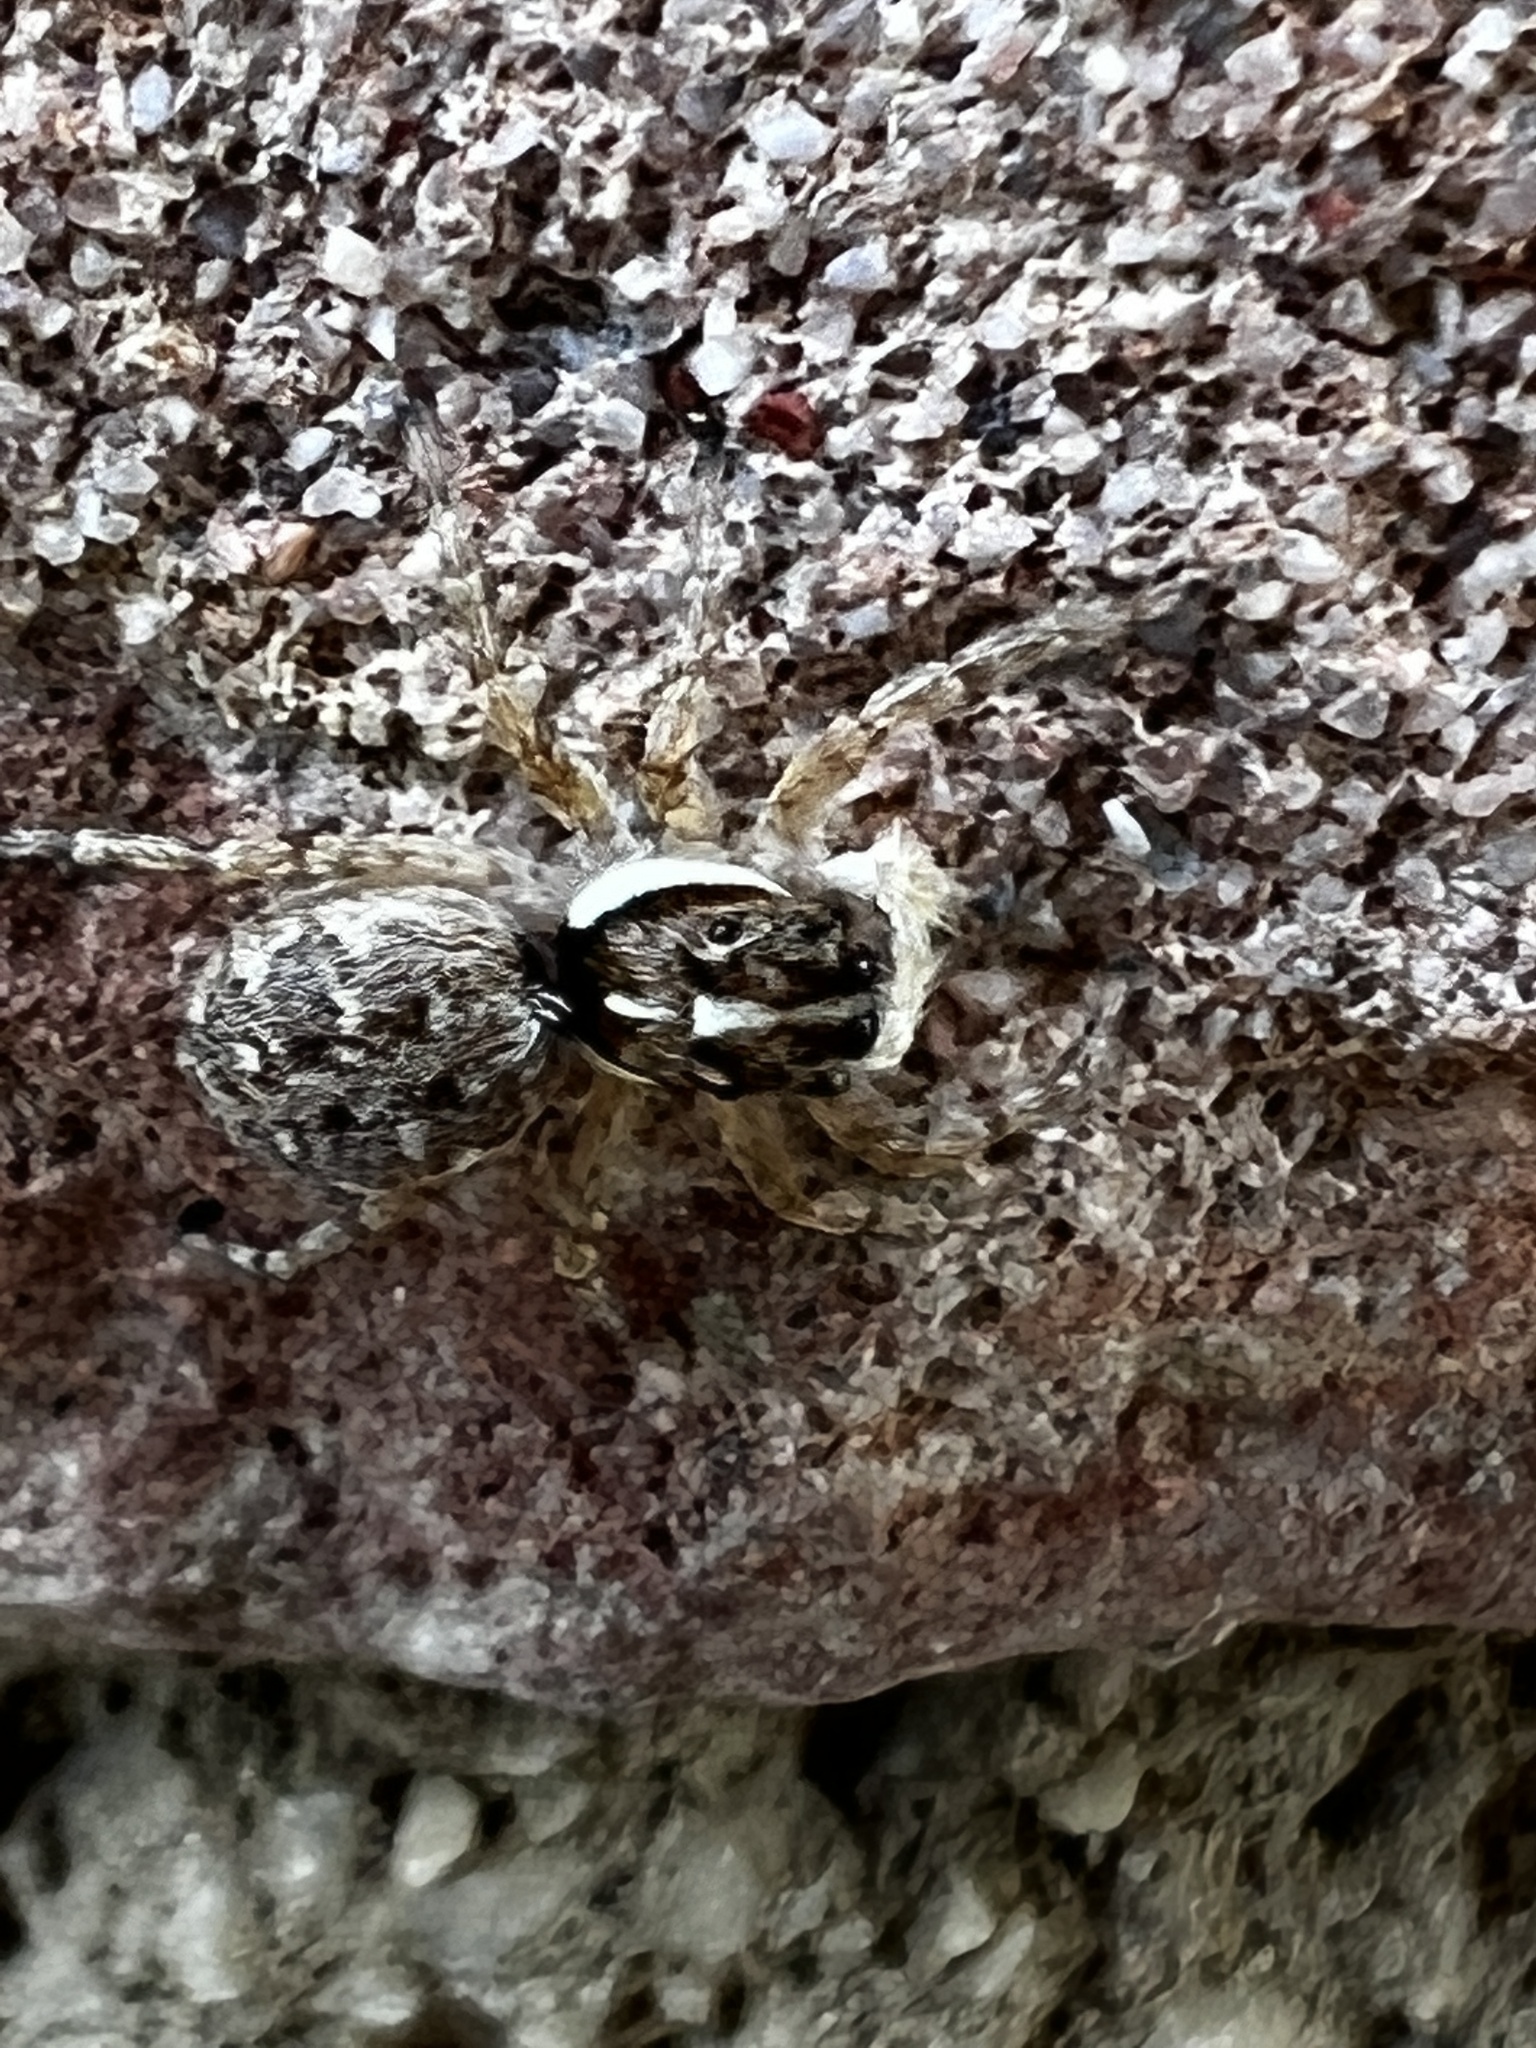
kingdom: Animalia
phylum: Arthropoda
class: Arachnida
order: Araneae
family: Salticidae
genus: Menemerus
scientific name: Menemerus semilimbatus
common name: Jumping spider
